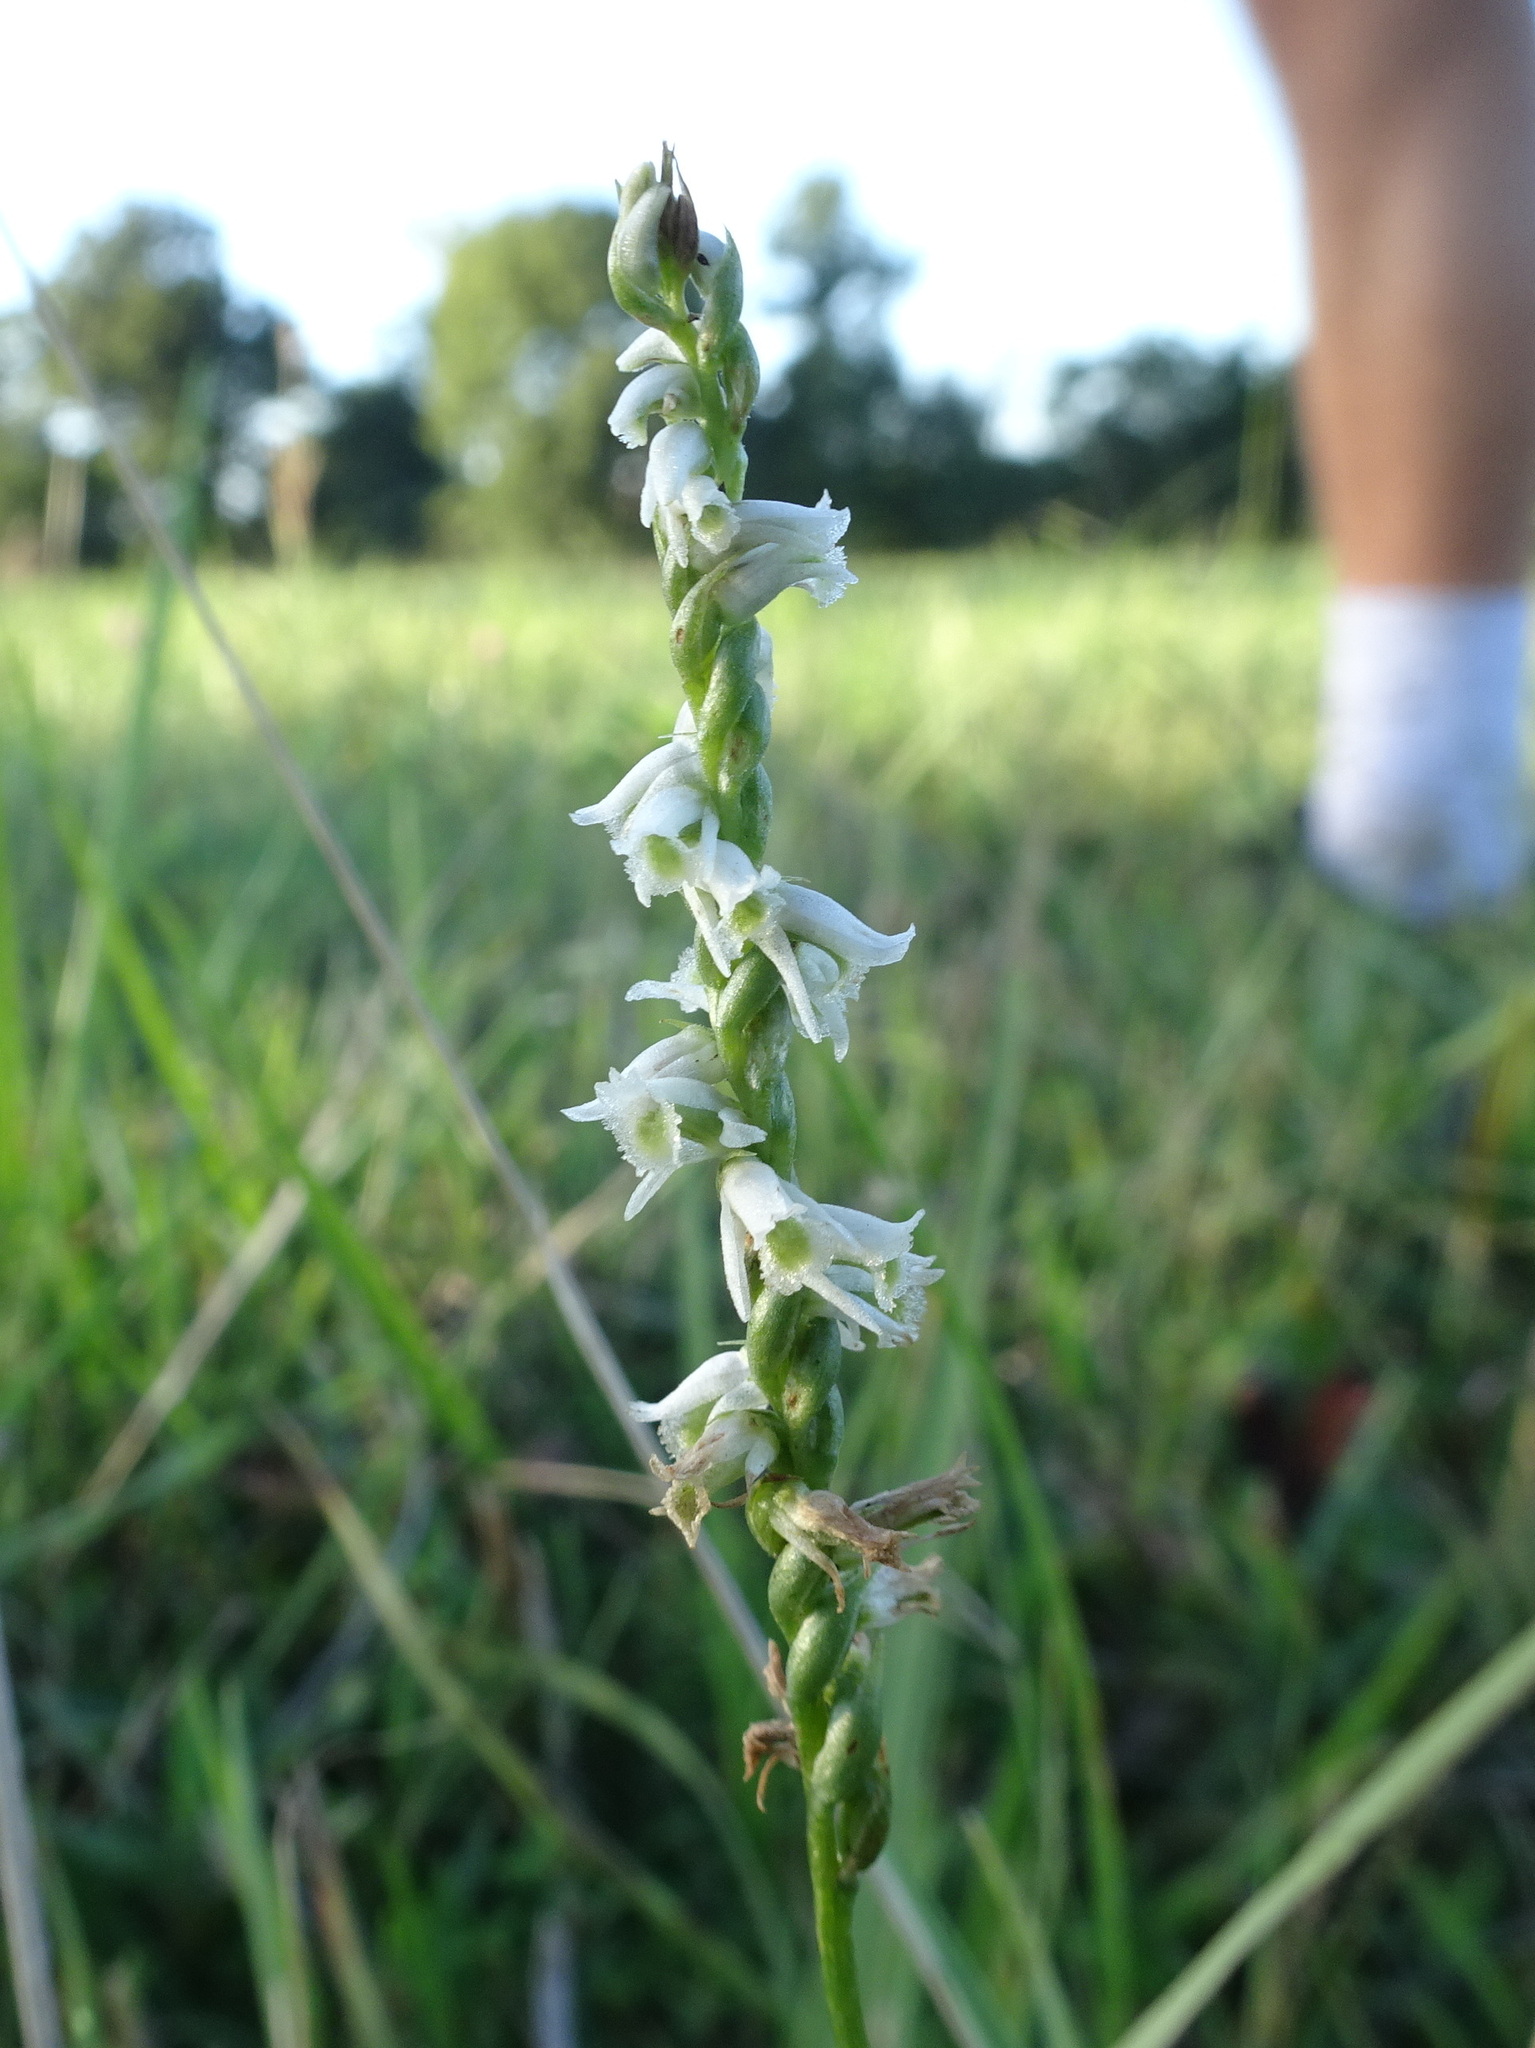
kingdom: Plantae
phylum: Tracheophyta
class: Liliopsida
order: Asparagales
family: Orchidaceae
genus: Spiranthes
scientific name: Spiranthes lacera
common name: Northern slender ladies'-tresses
